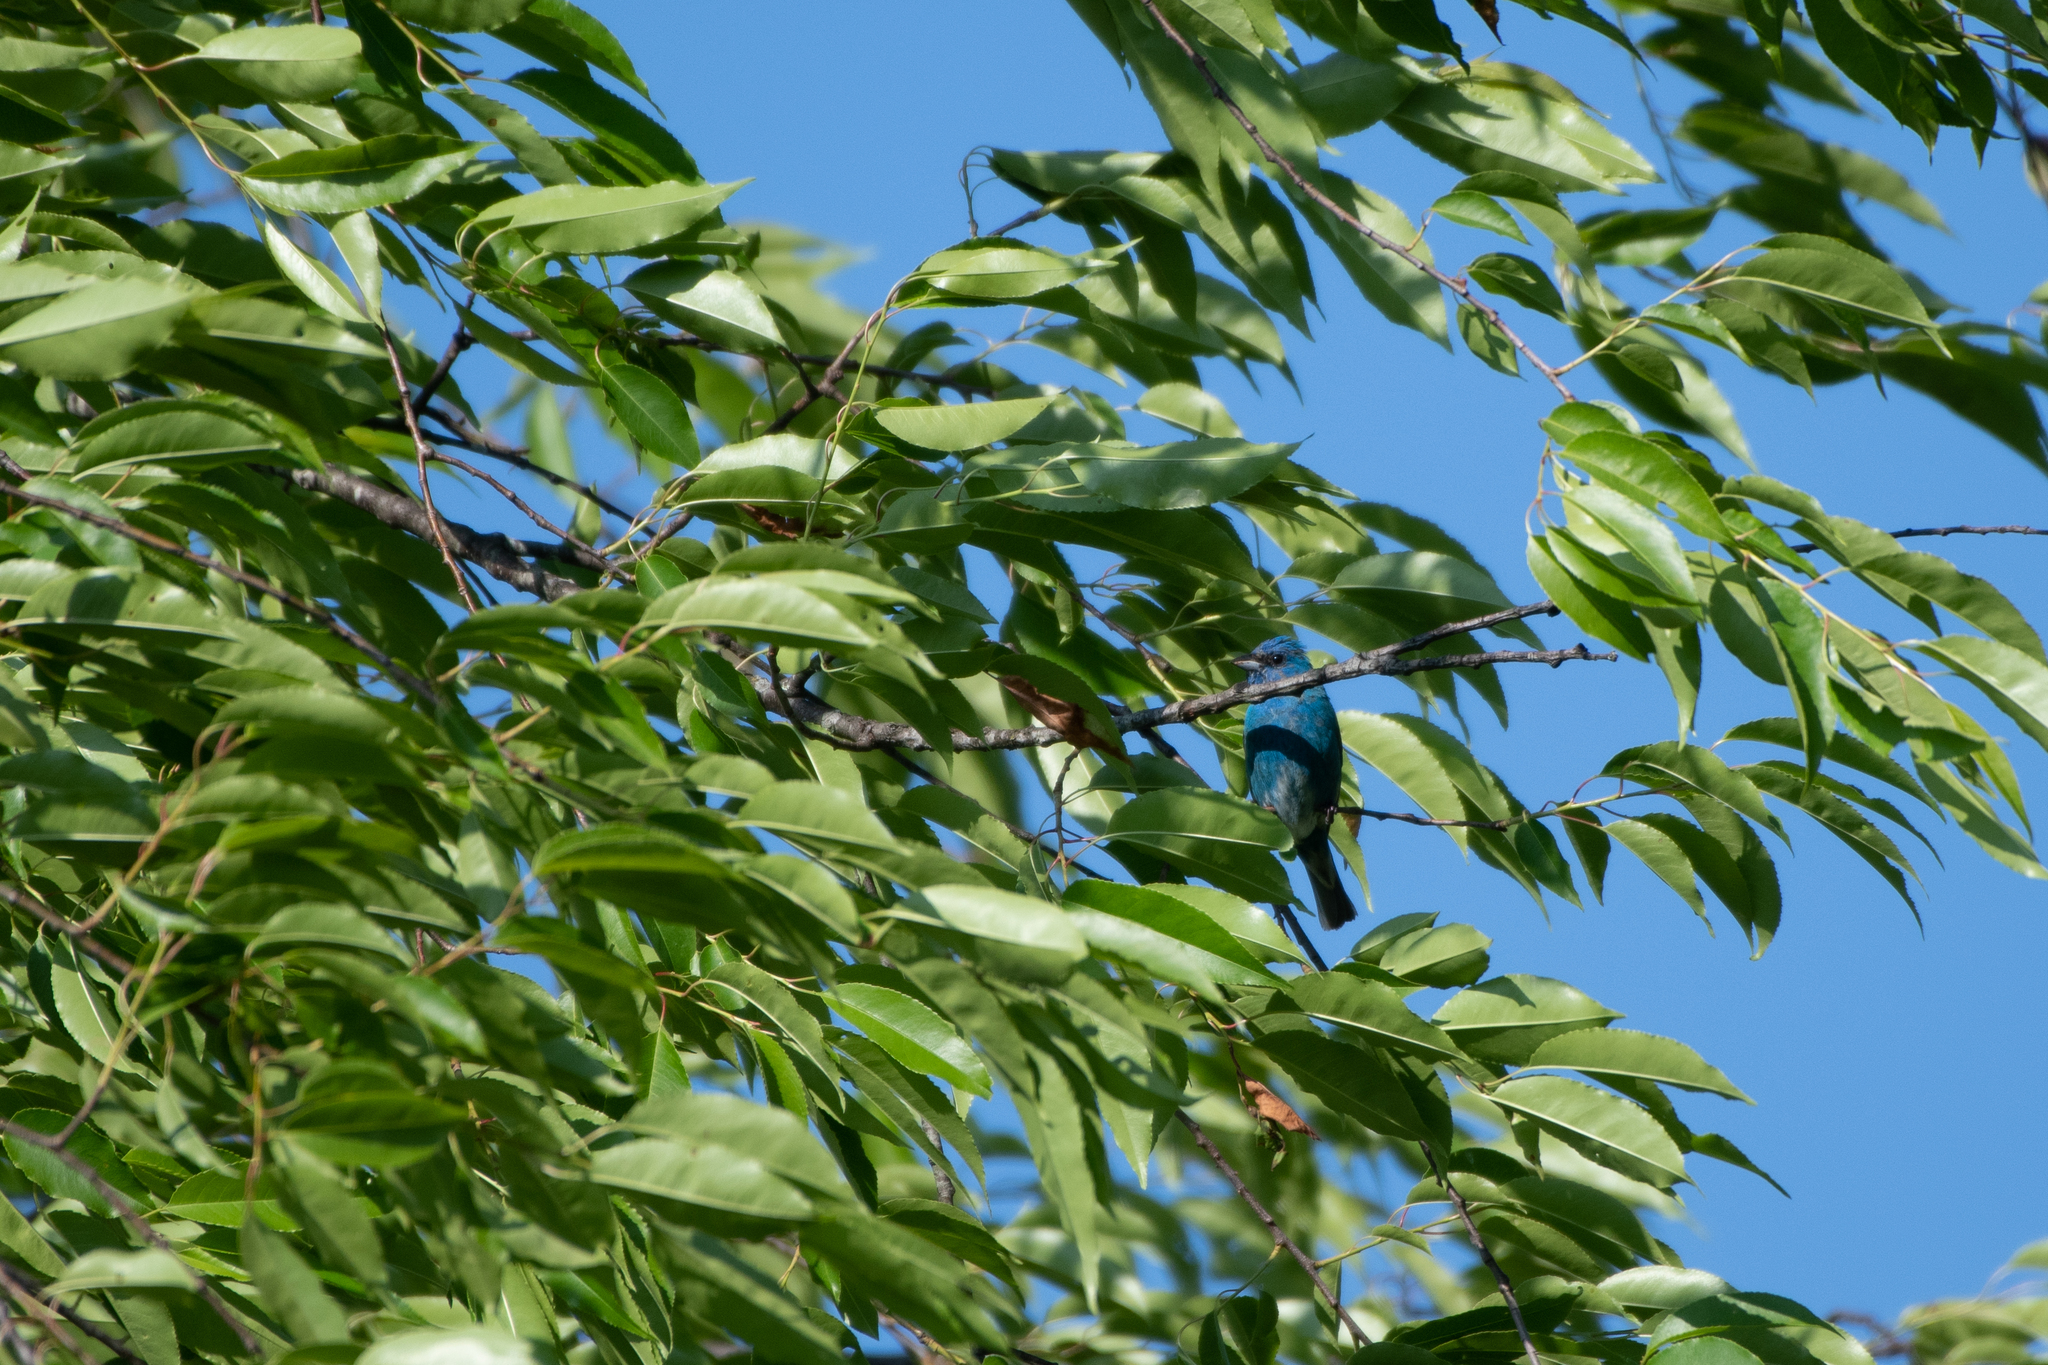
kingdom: Animalia
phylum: Chordata
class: Aves
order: Passeriformes
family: Cardinalidae
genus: Passerina
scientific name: Passerina cyanea
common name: Indigo bunting
